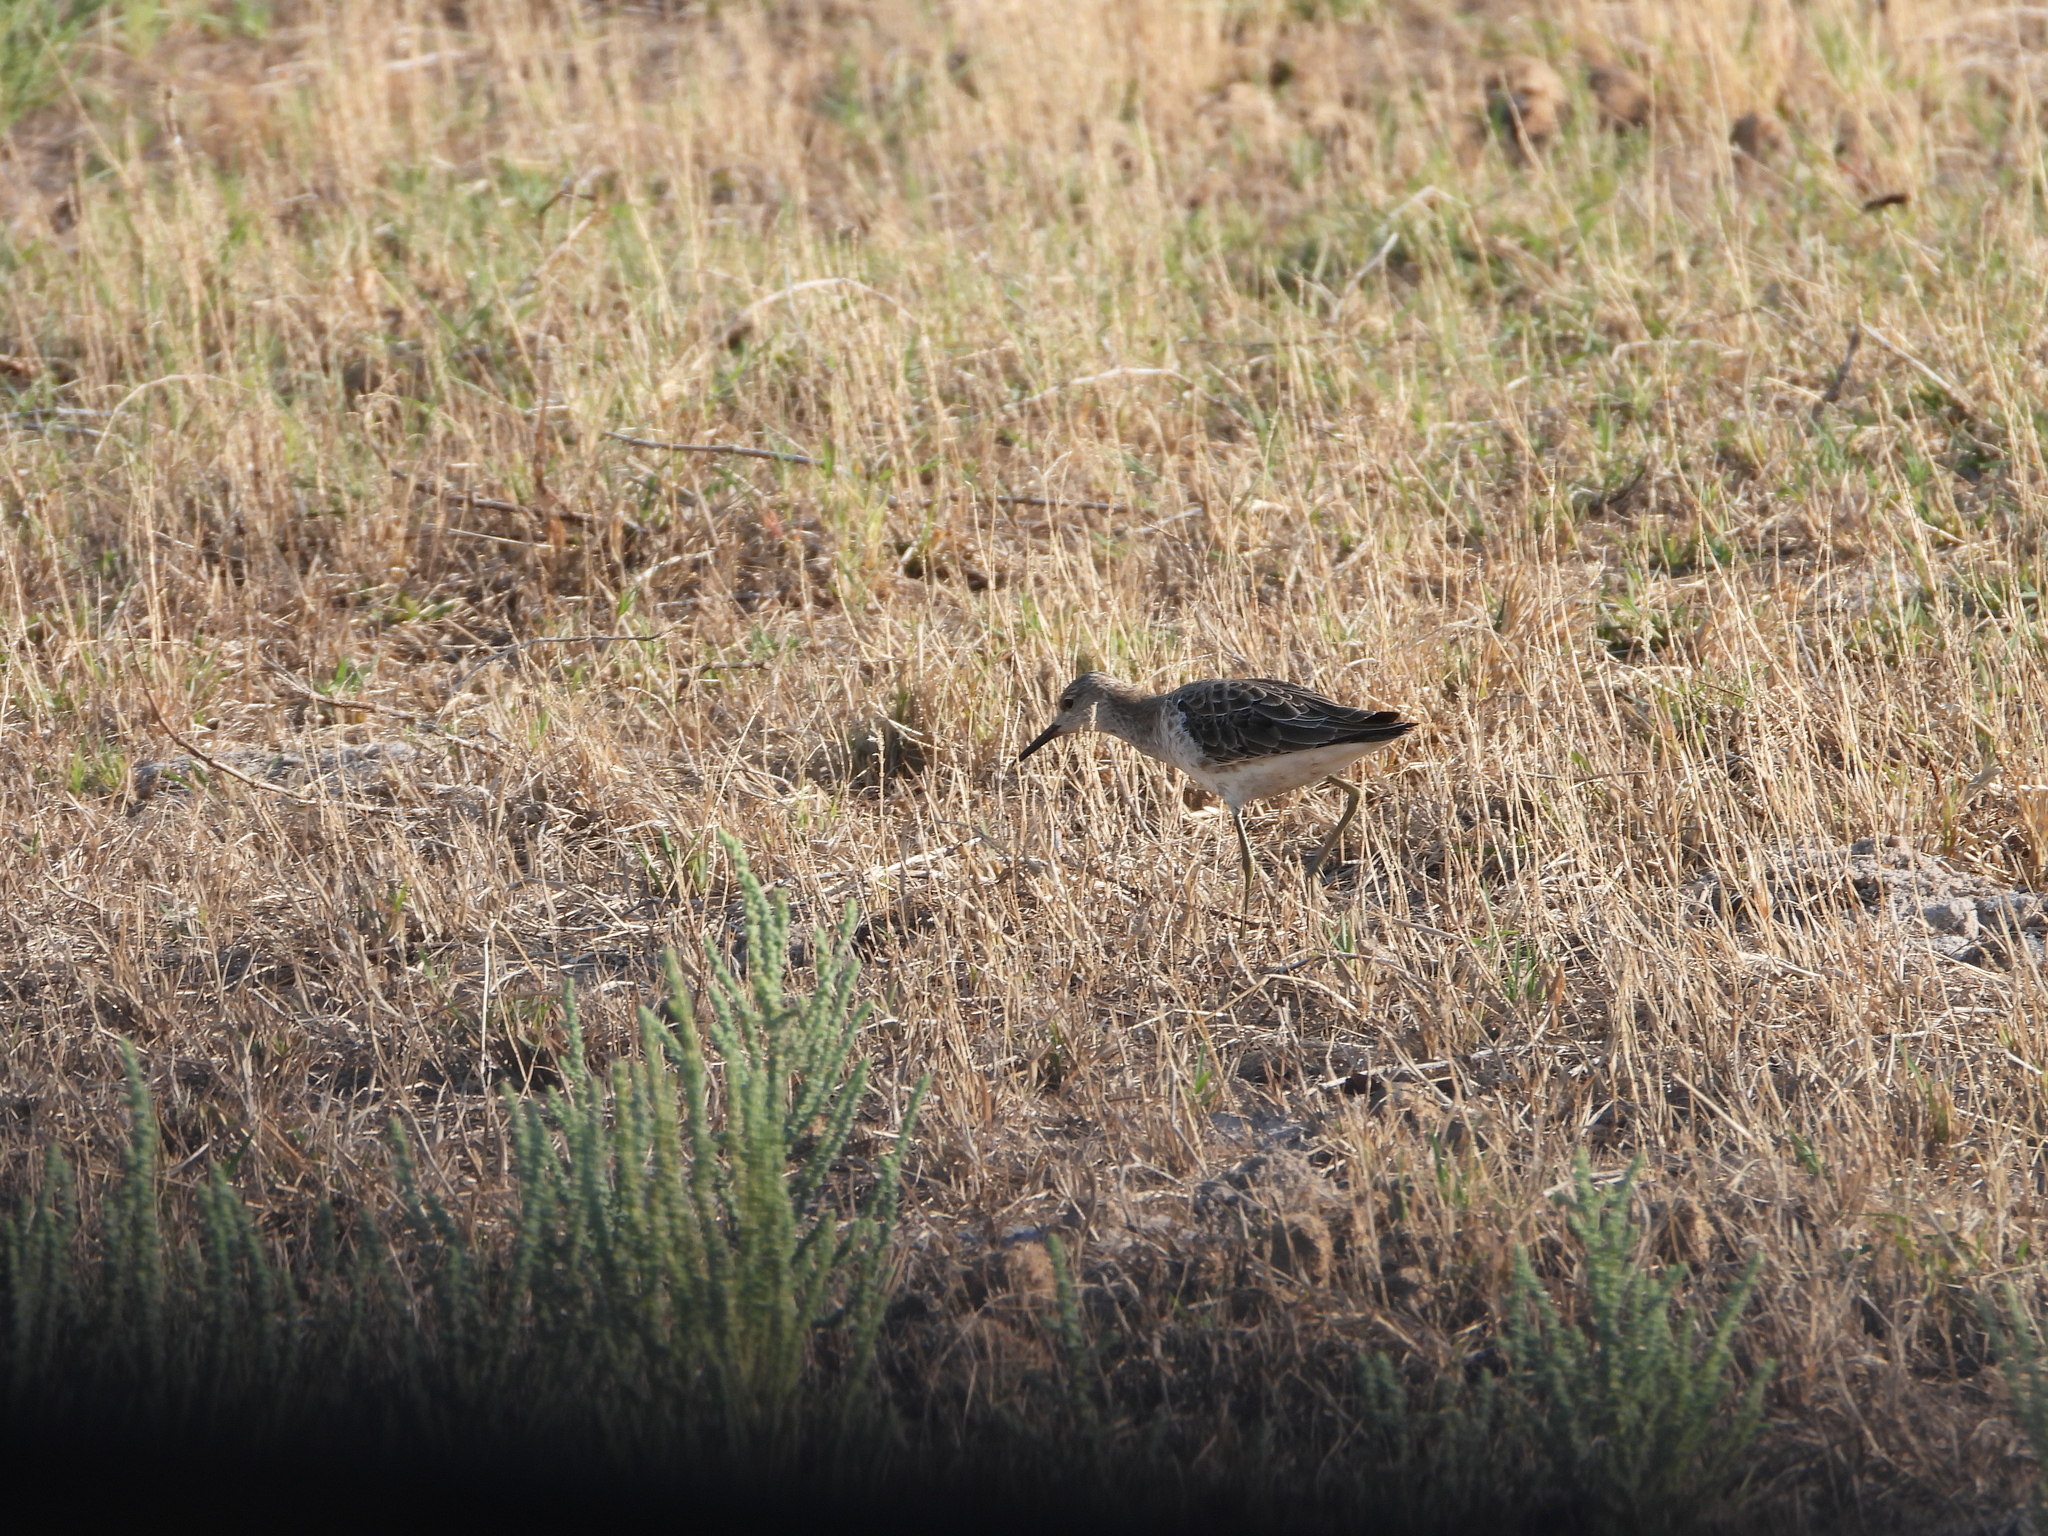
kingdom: Animalia
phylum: Chordata
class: Aves
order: Charadriiformes
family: Scolopacidae
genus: Calidris
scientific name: Calidris pugnax
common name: Ruff
